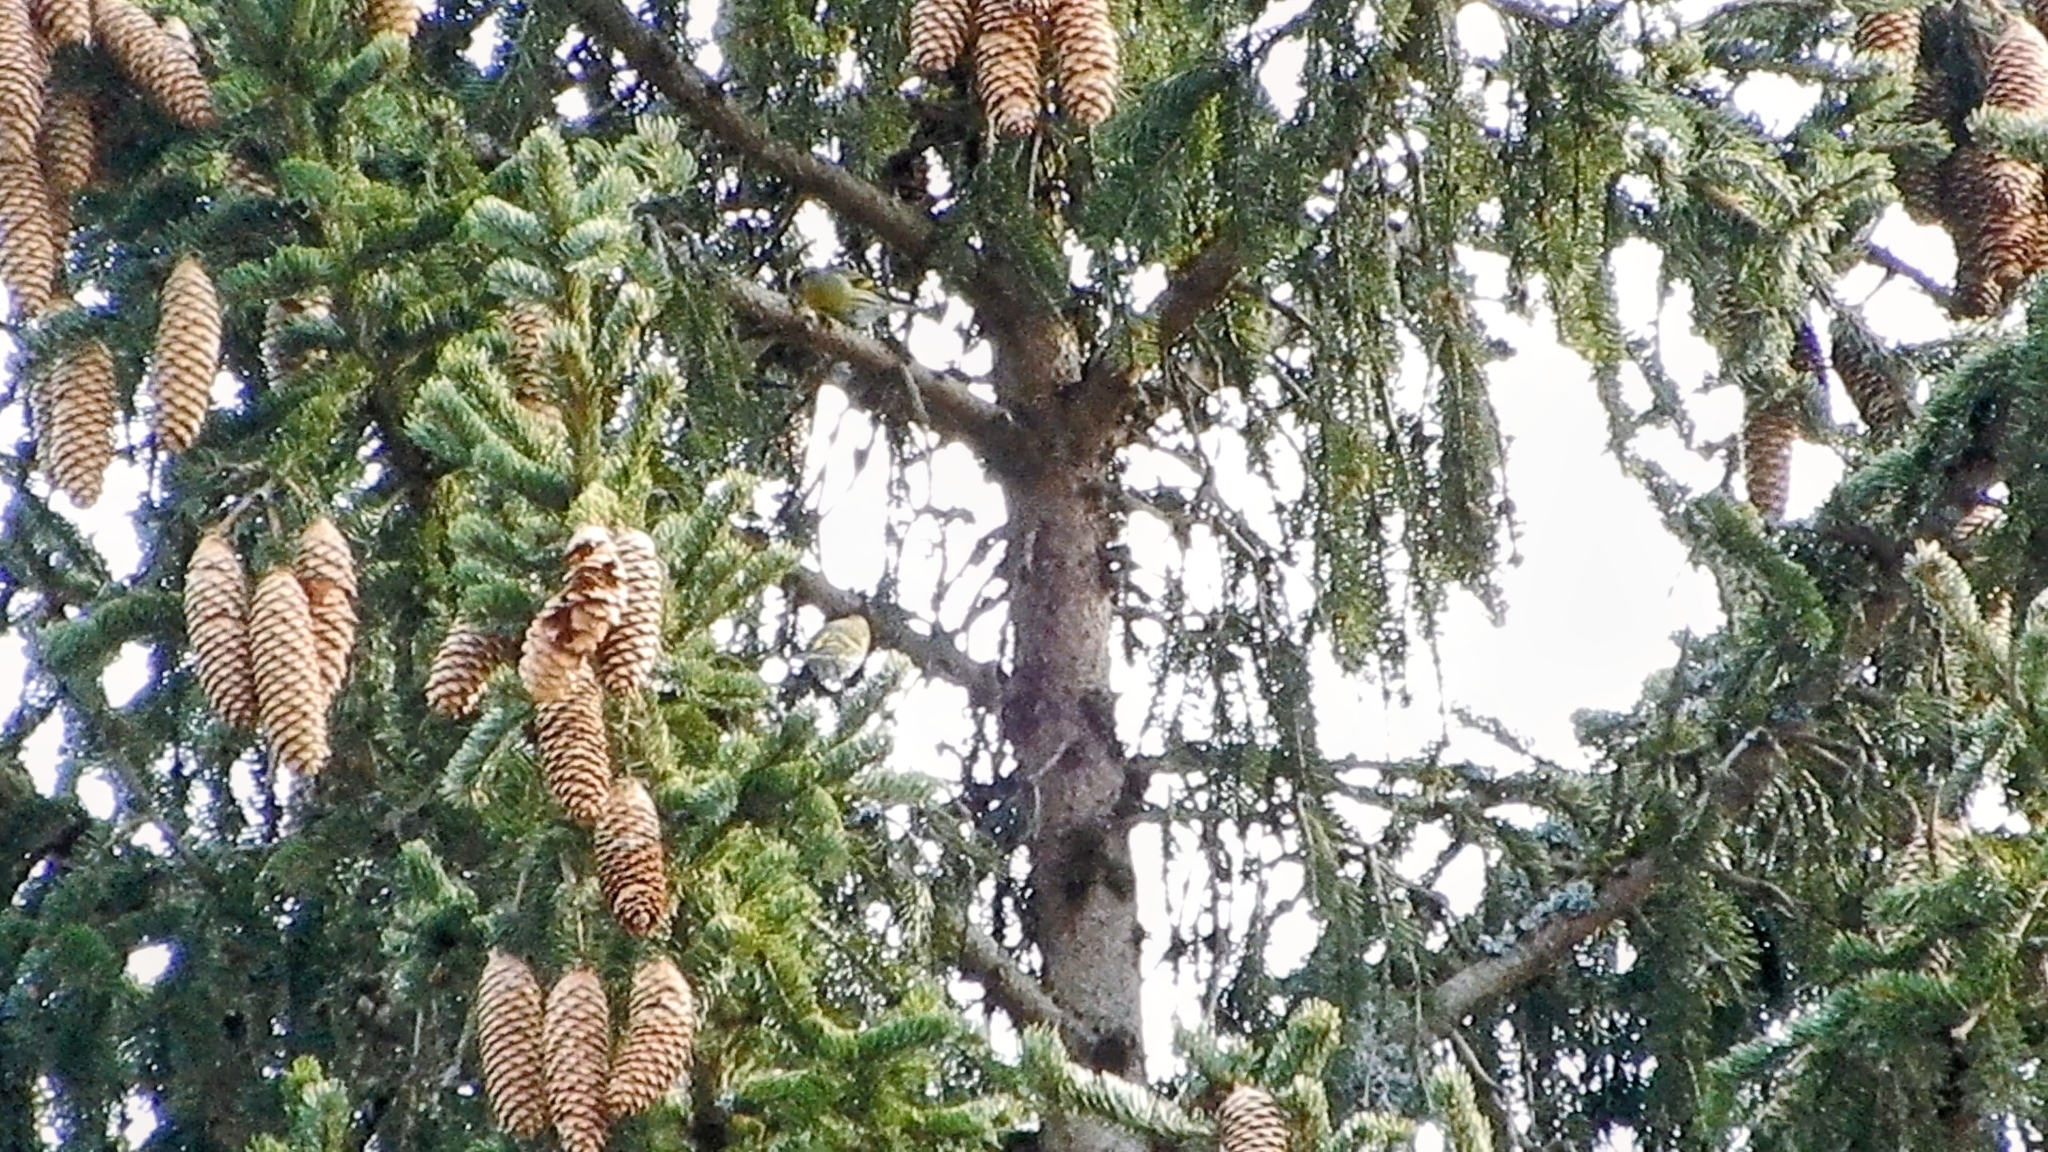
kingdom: Animalia
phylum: Chordata
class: Aves
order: Passeriformes
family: Fringillidae
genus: Spinus
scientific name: Spinus spinus
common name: Eurasian siskin
